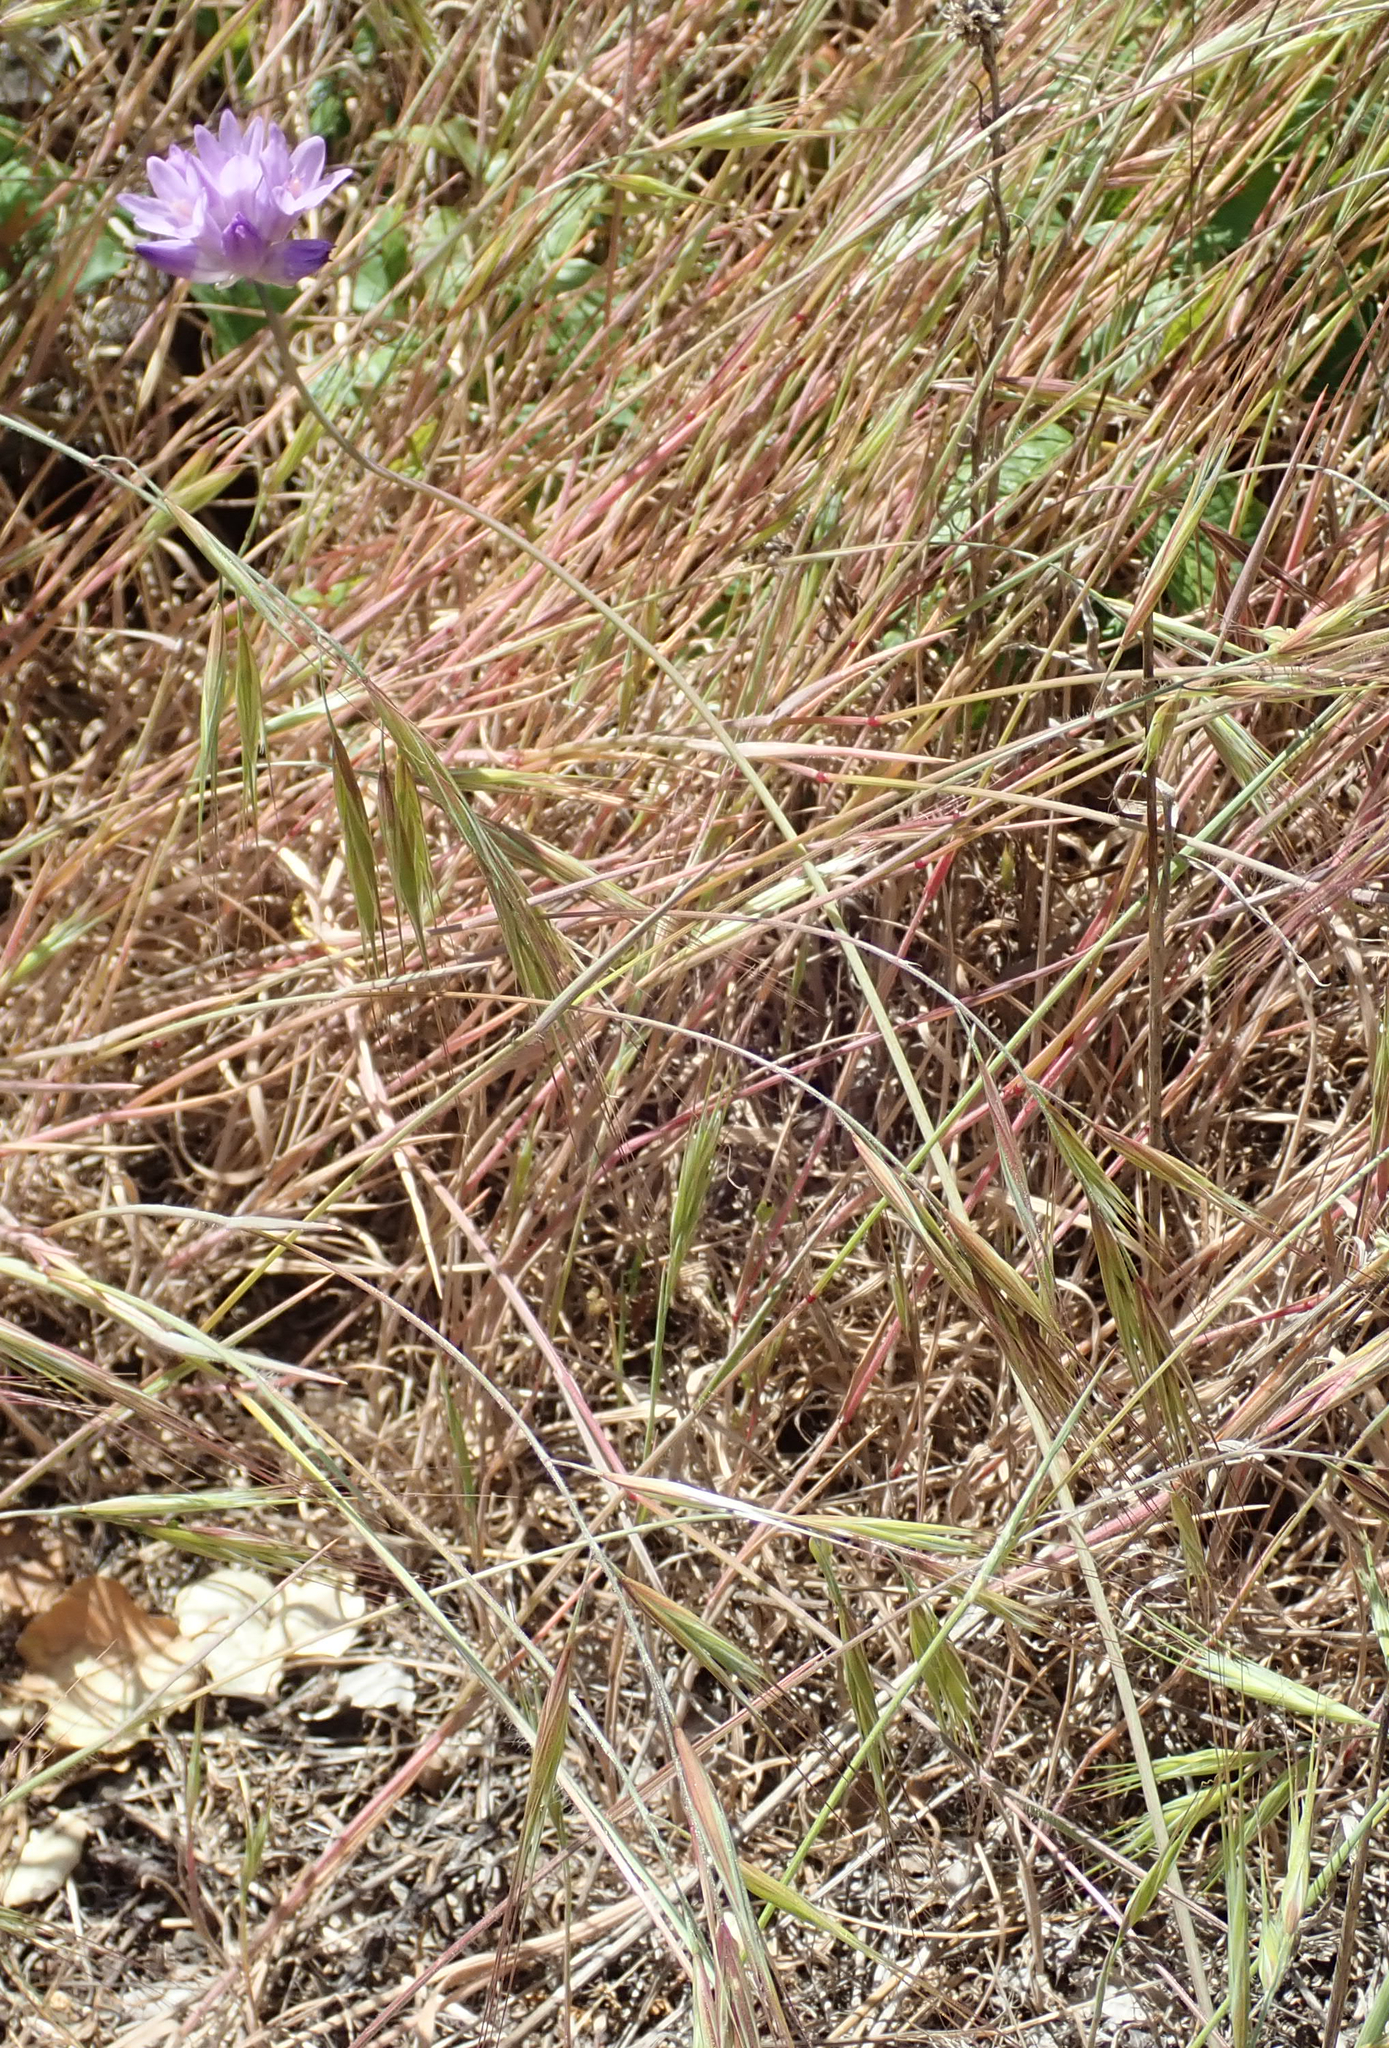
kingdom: Plantae
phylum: Tracheophyta
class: Liliopsida
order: Asparagales
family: Asparagaceae
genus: Dipterostemon
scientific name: Dipterostemon capitatus
